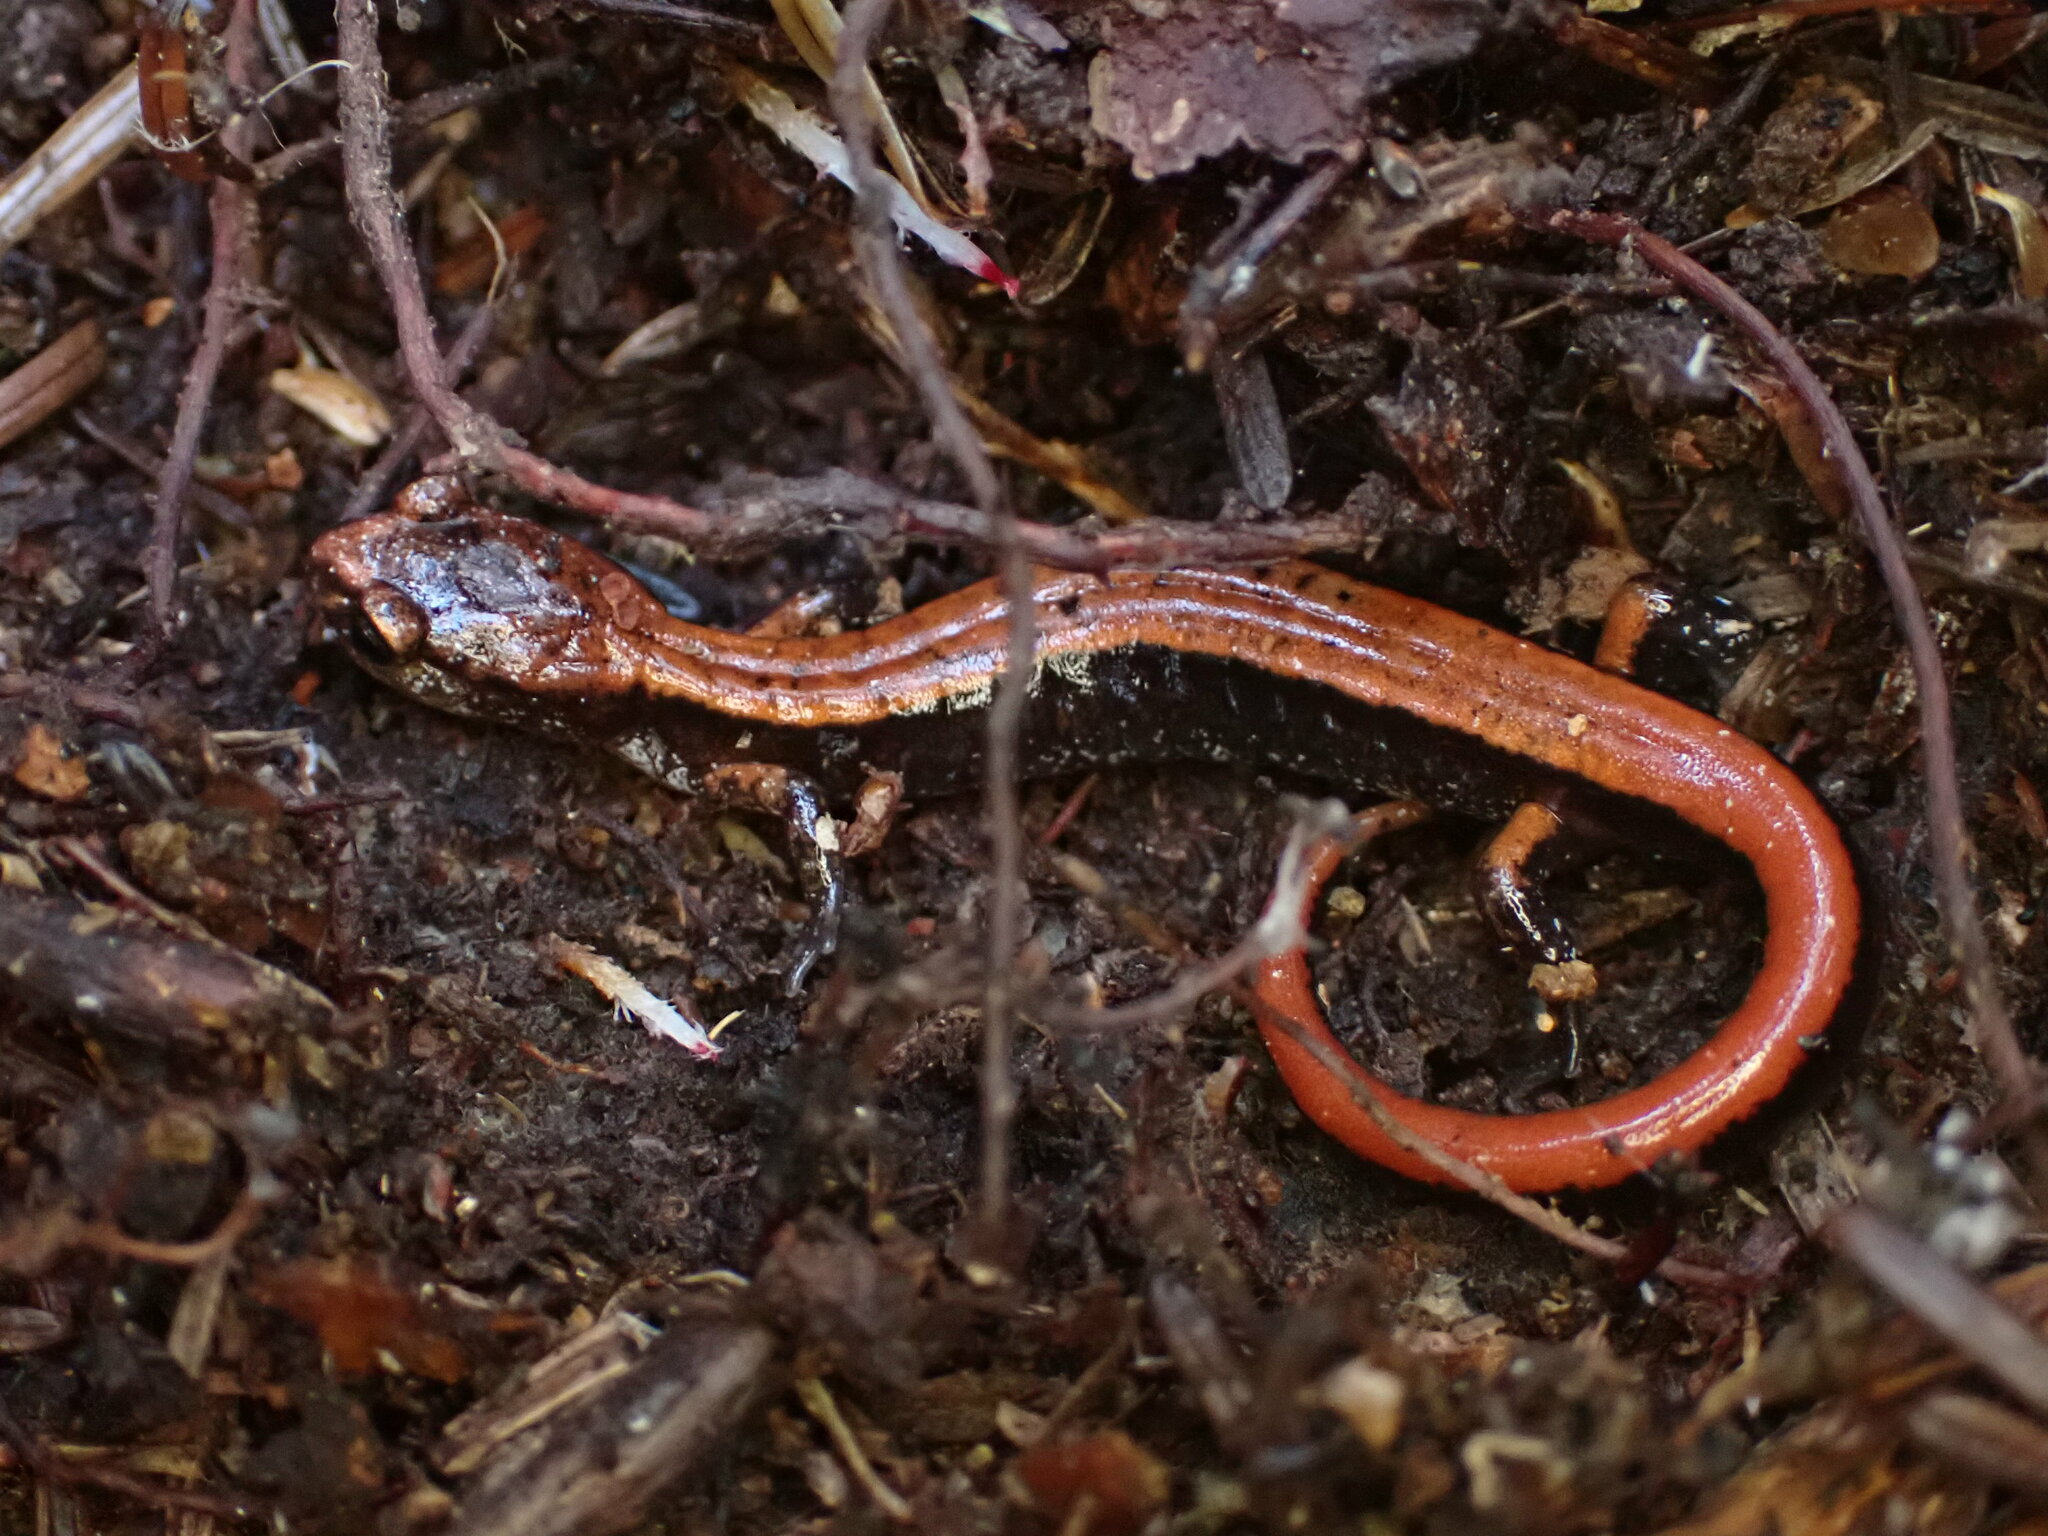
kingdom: Animalia
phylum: Chordata
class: Amphibia
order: Caudata
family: Plethodontidae
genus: Plethodon
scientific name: Plethodon vehiculum
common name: Western red-backed salamander
